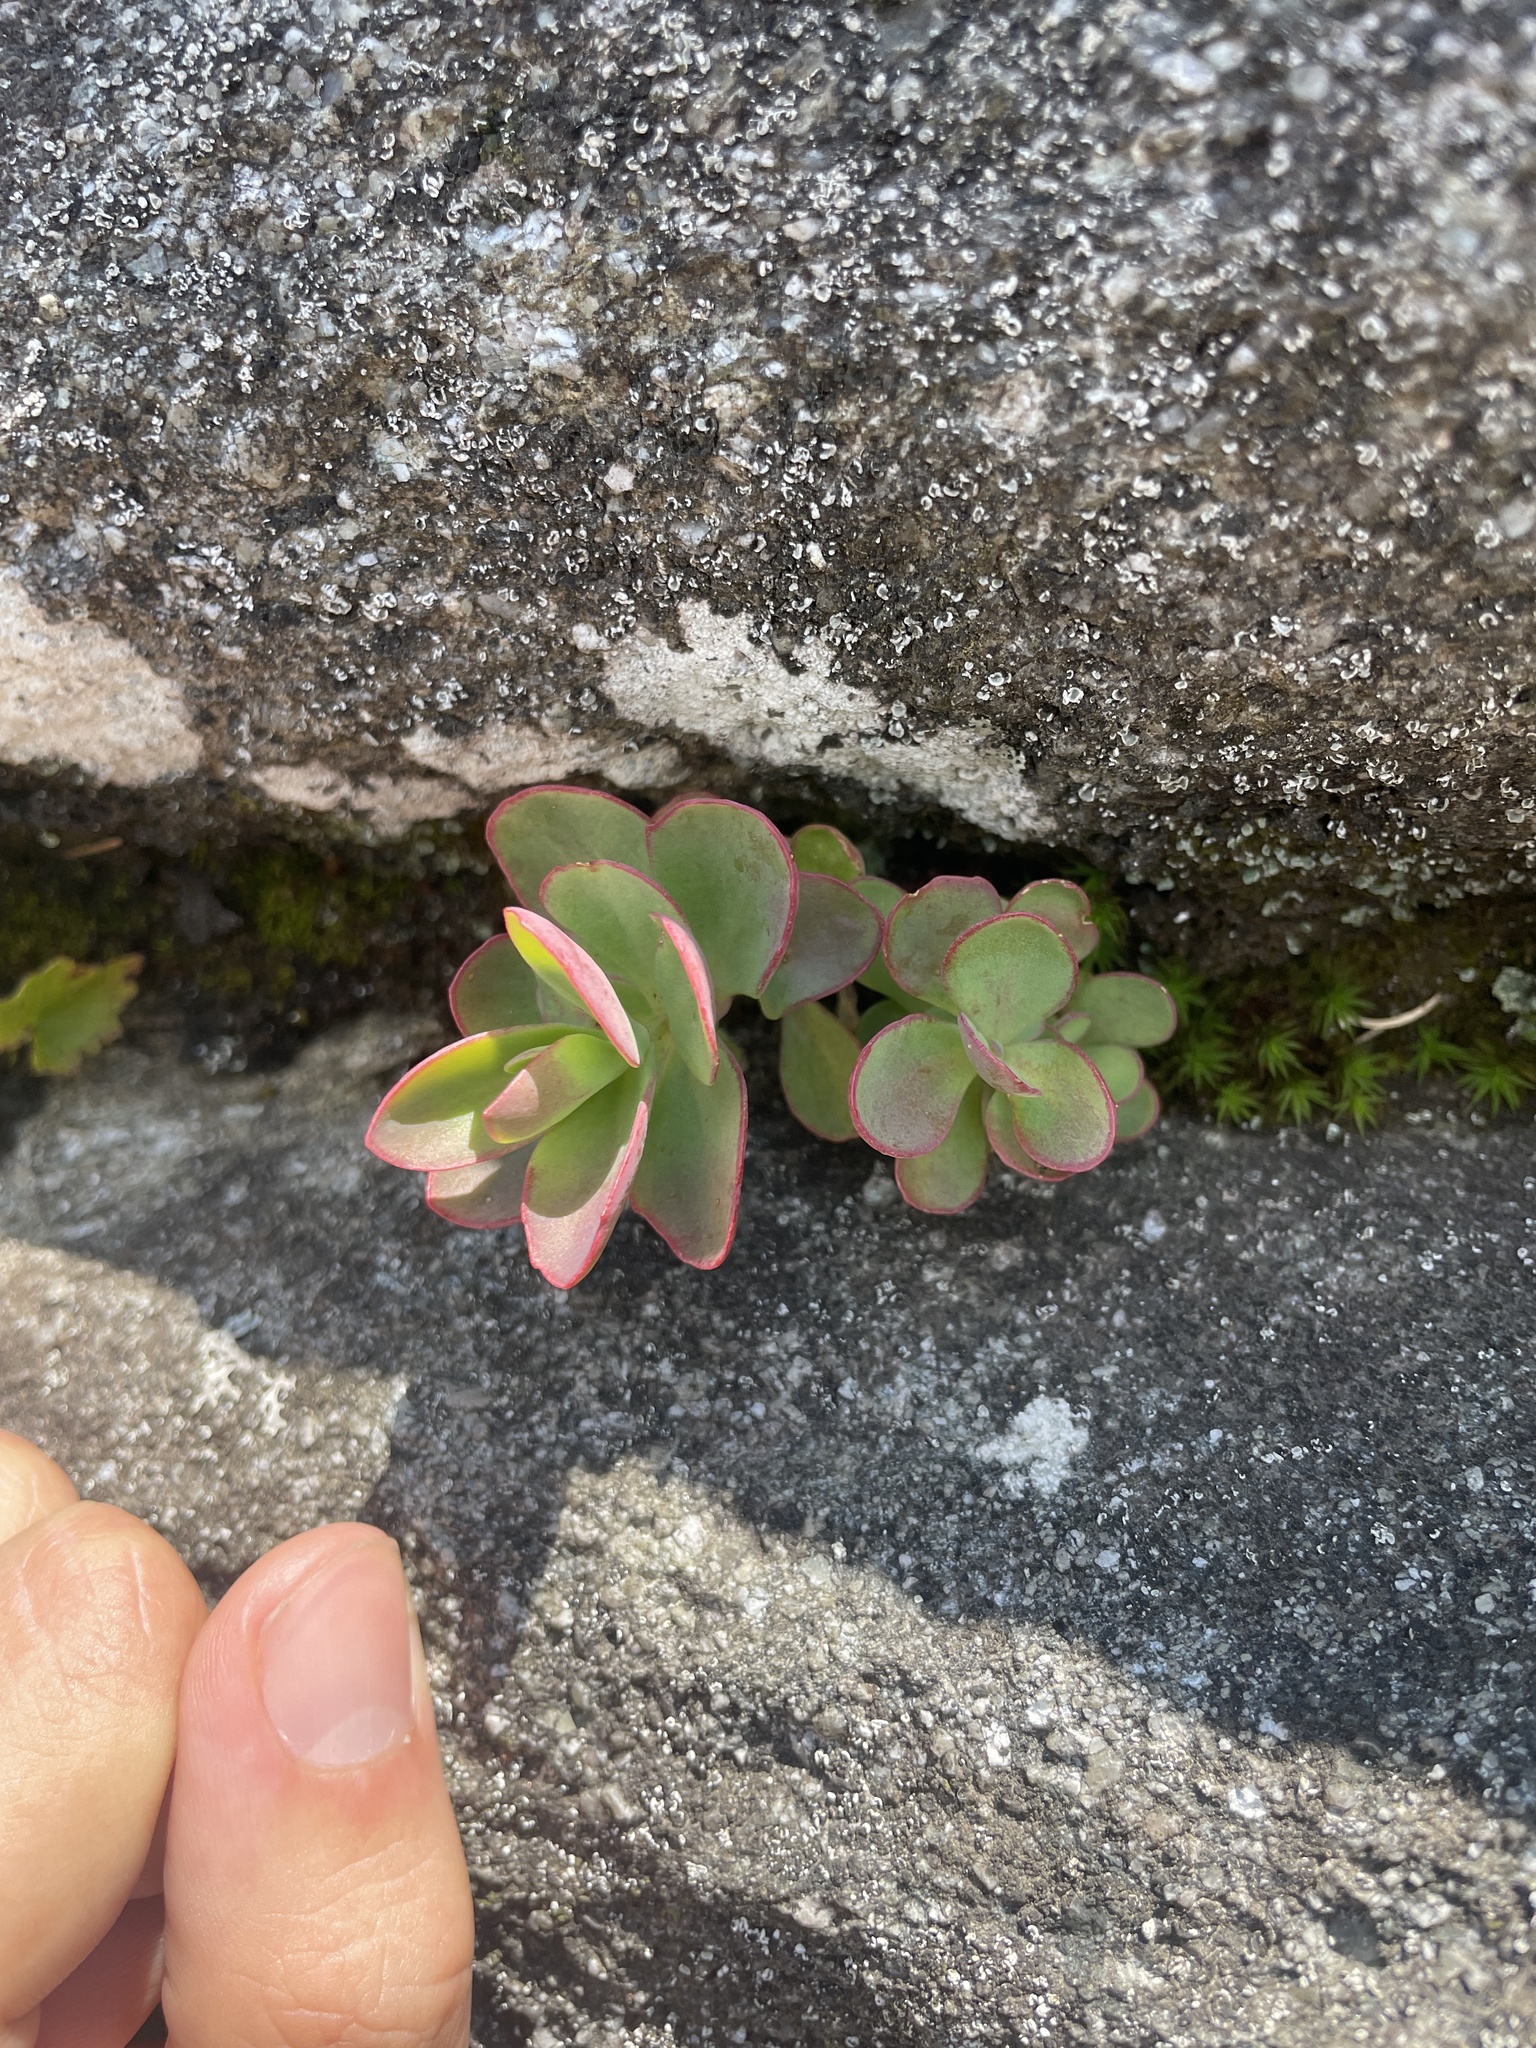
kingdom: Plantae
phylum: Tracheophyta
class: Magnoliopsida
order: Saxifragales
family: Crassulaceae
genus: Hylotelephium
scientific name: Hylotelephium telephioides
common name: Allegheny stonecrop
